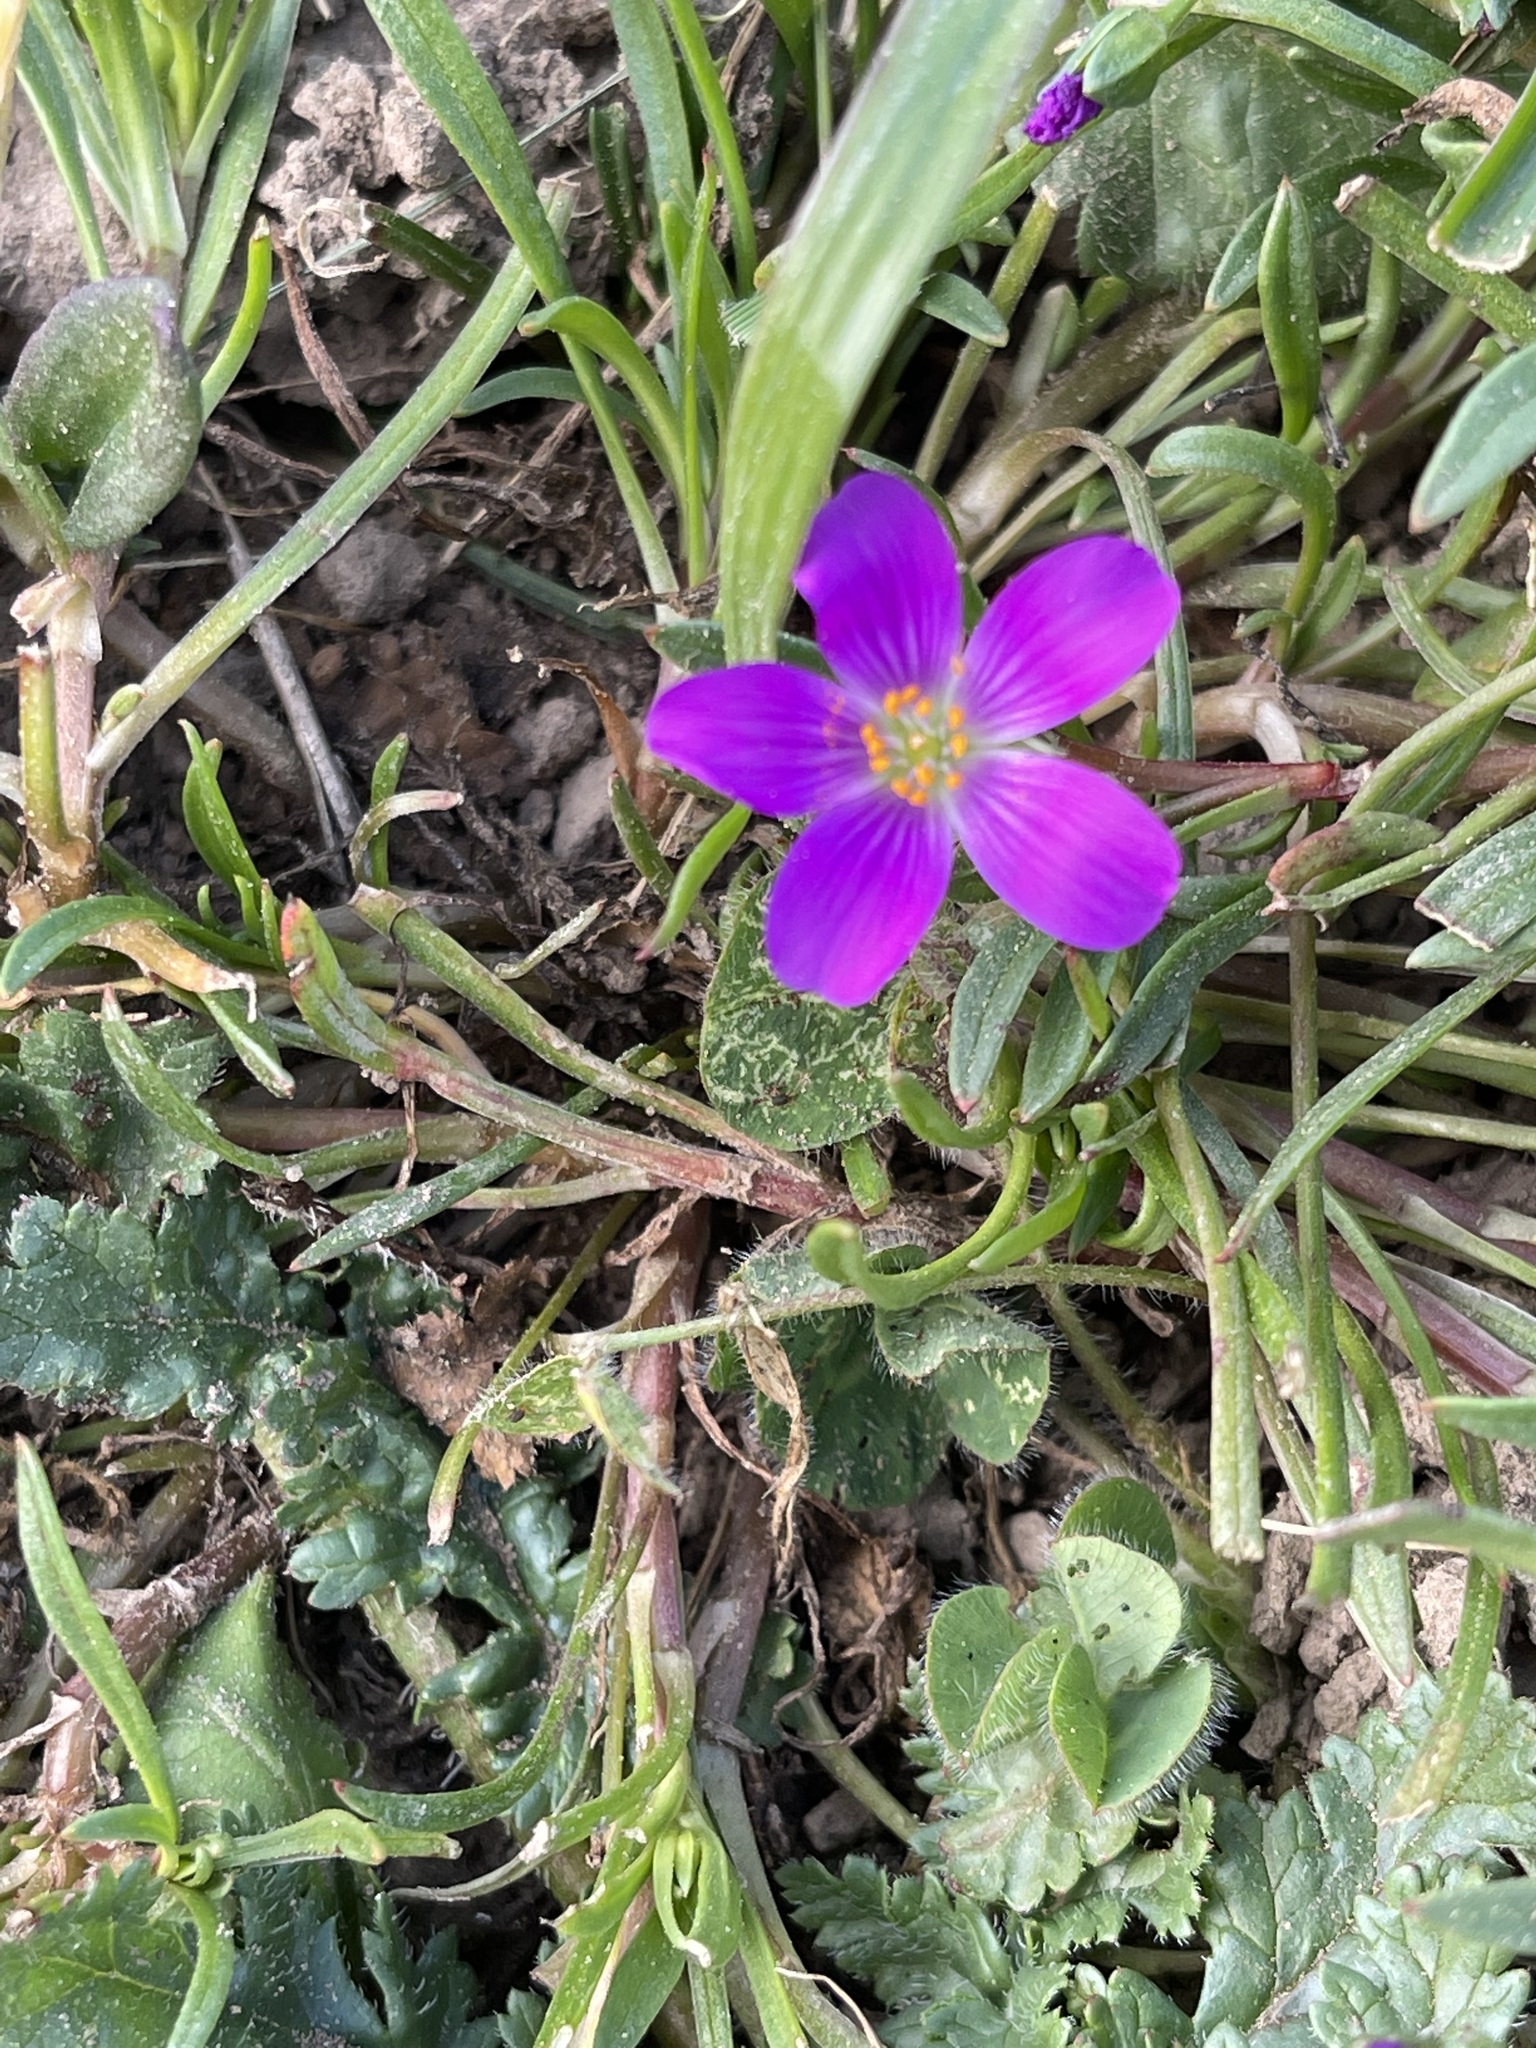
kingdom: Plantae
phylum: Tracheophyta
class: Magnoliopsida
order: Caryophyllales
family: Montiaceae
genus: Calandrinia
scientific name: Calandrinia menziesii
